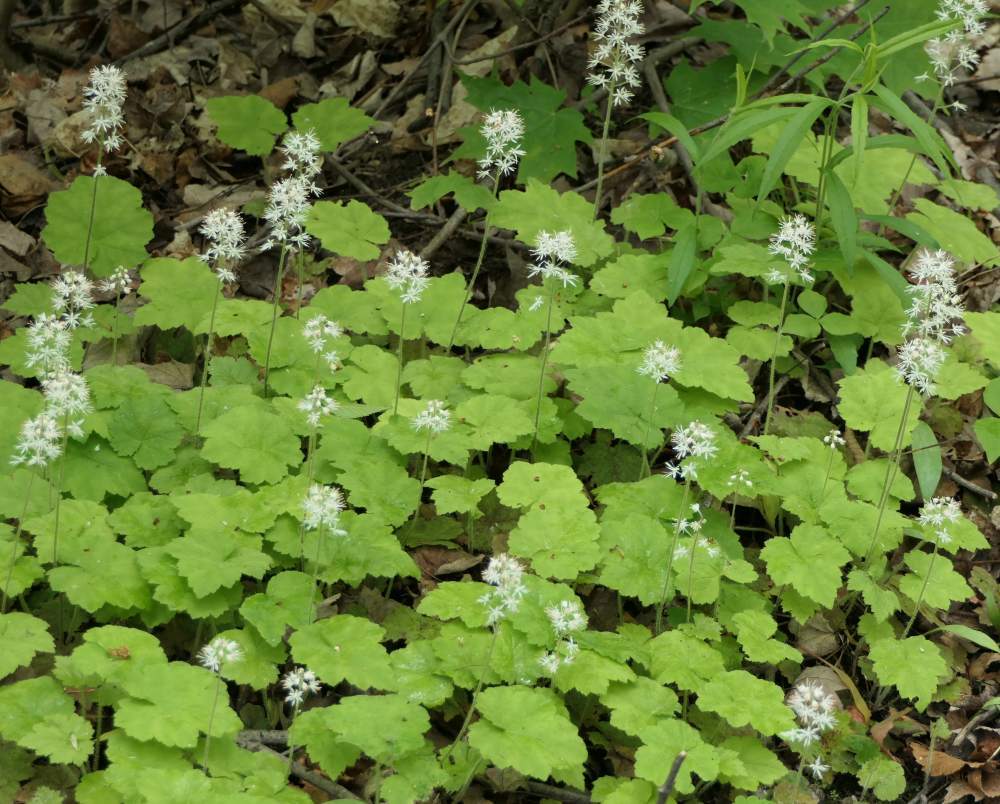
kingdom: Plantae
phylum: Tracheophyta
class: Magnoliopsida
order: Saxifragales
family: Saxifragaceae
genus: Tiarella
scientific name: Tiarella stolonifera
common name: Stoloniferous foamflower
